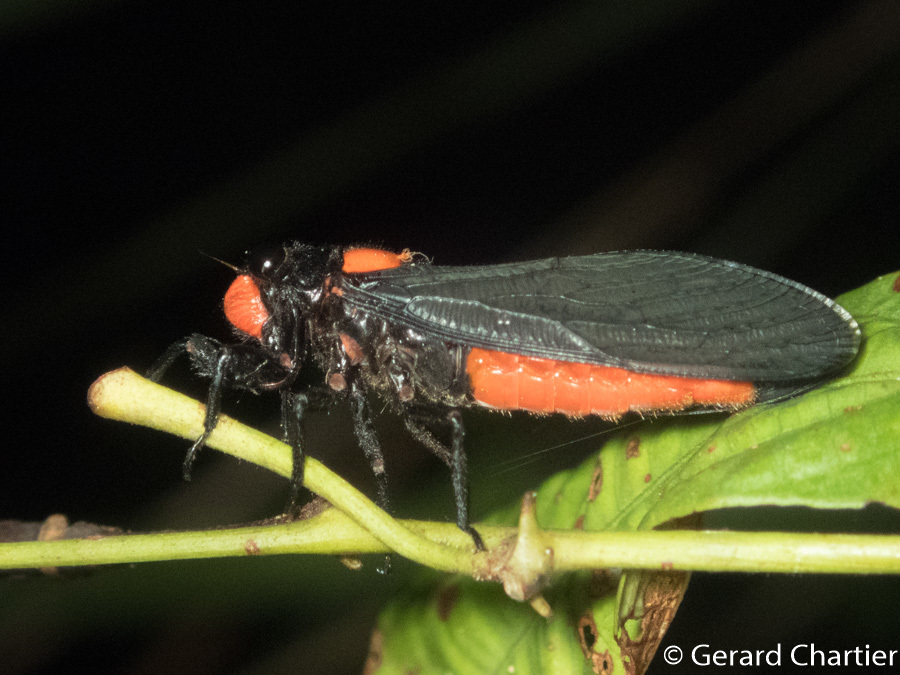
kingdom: Animalia
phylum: Arthropoda
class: Insecta
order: Hemiptera
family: Cicadidae
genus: Huechys
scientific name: Huechys sanguinea
